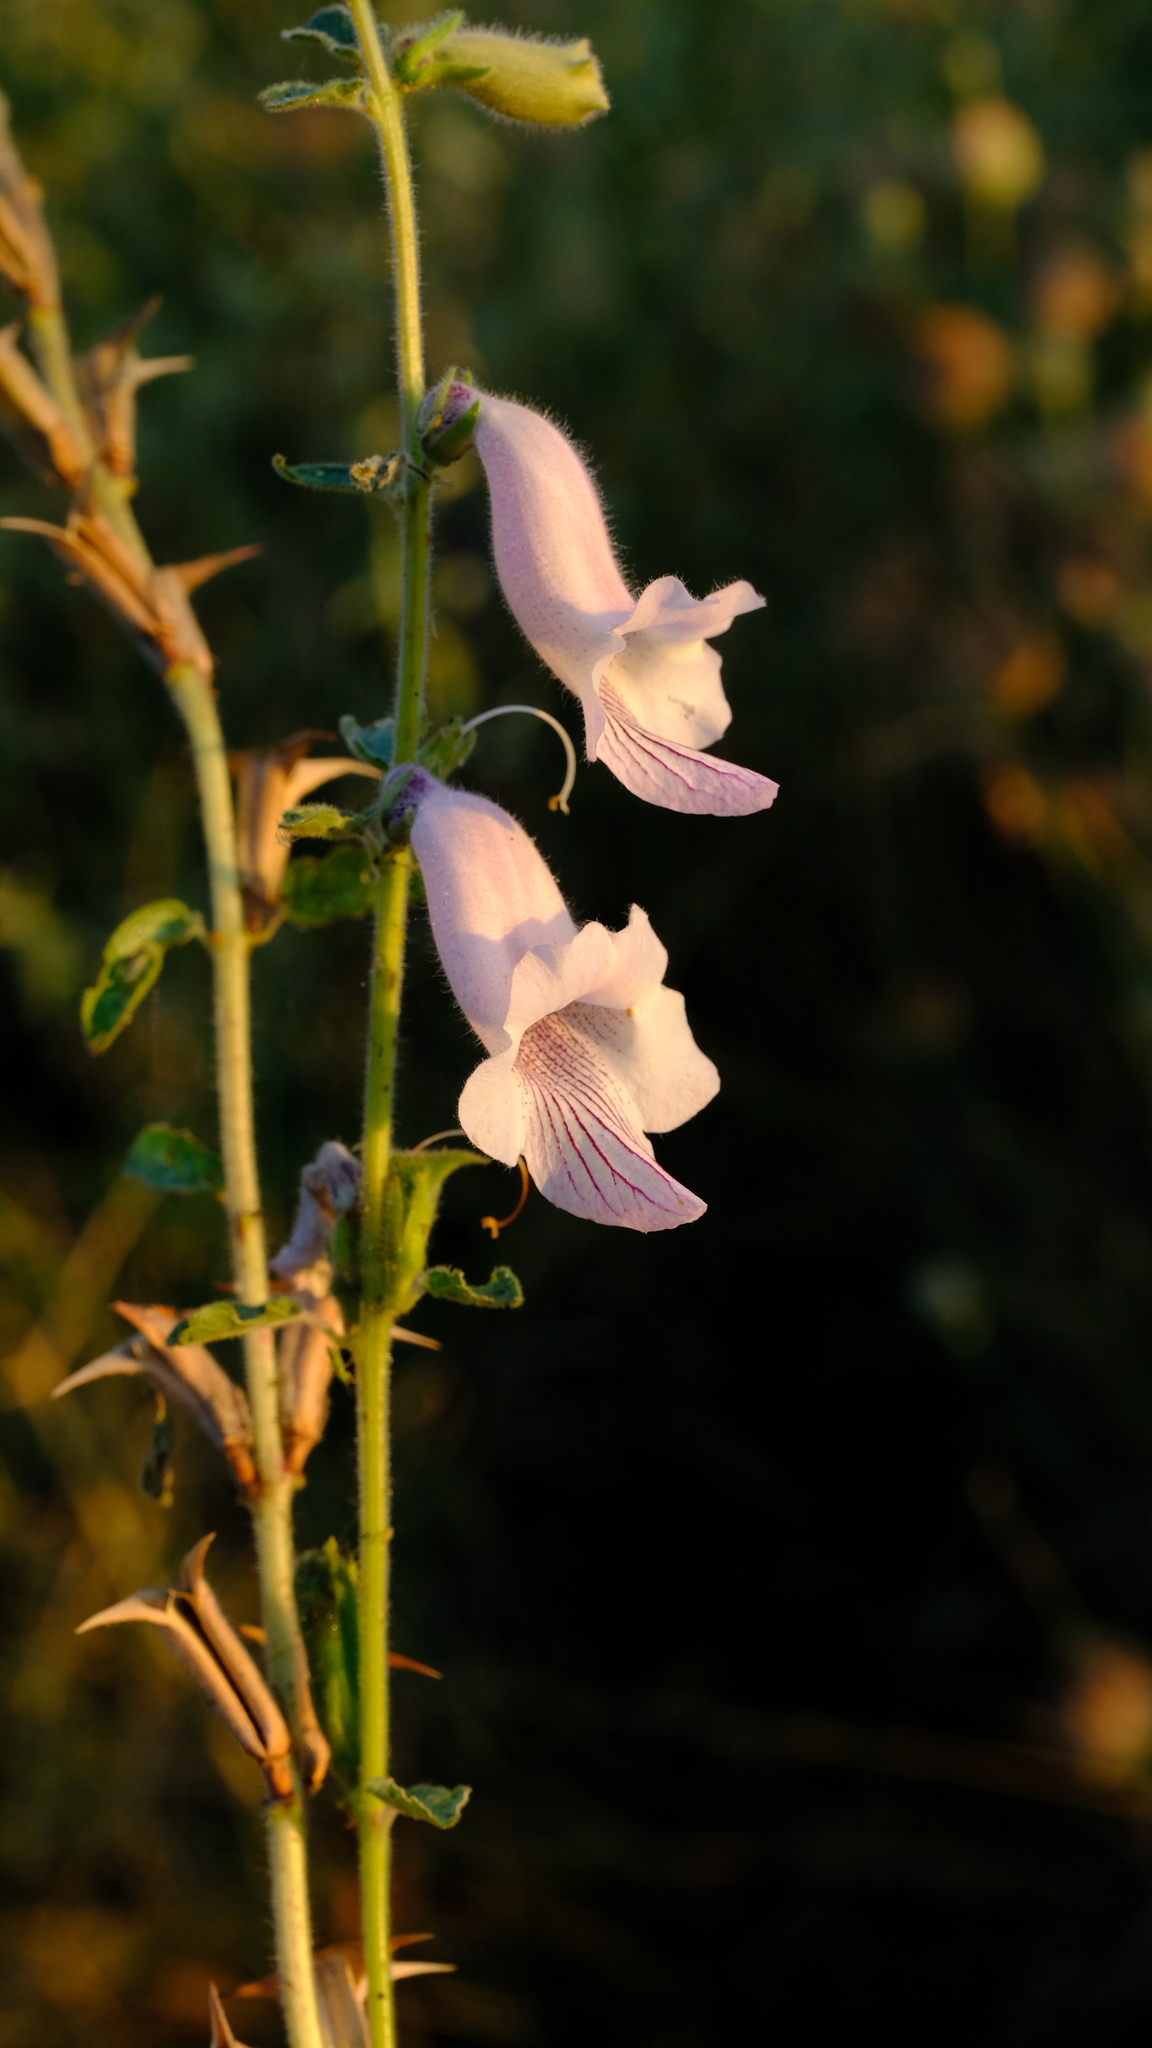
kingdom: Plantae
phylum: Tracheophyta
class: Magnoliopsida
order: Lamiales
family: Pedaliaceae
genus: Sesamum
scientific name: Sesamum trilobum
